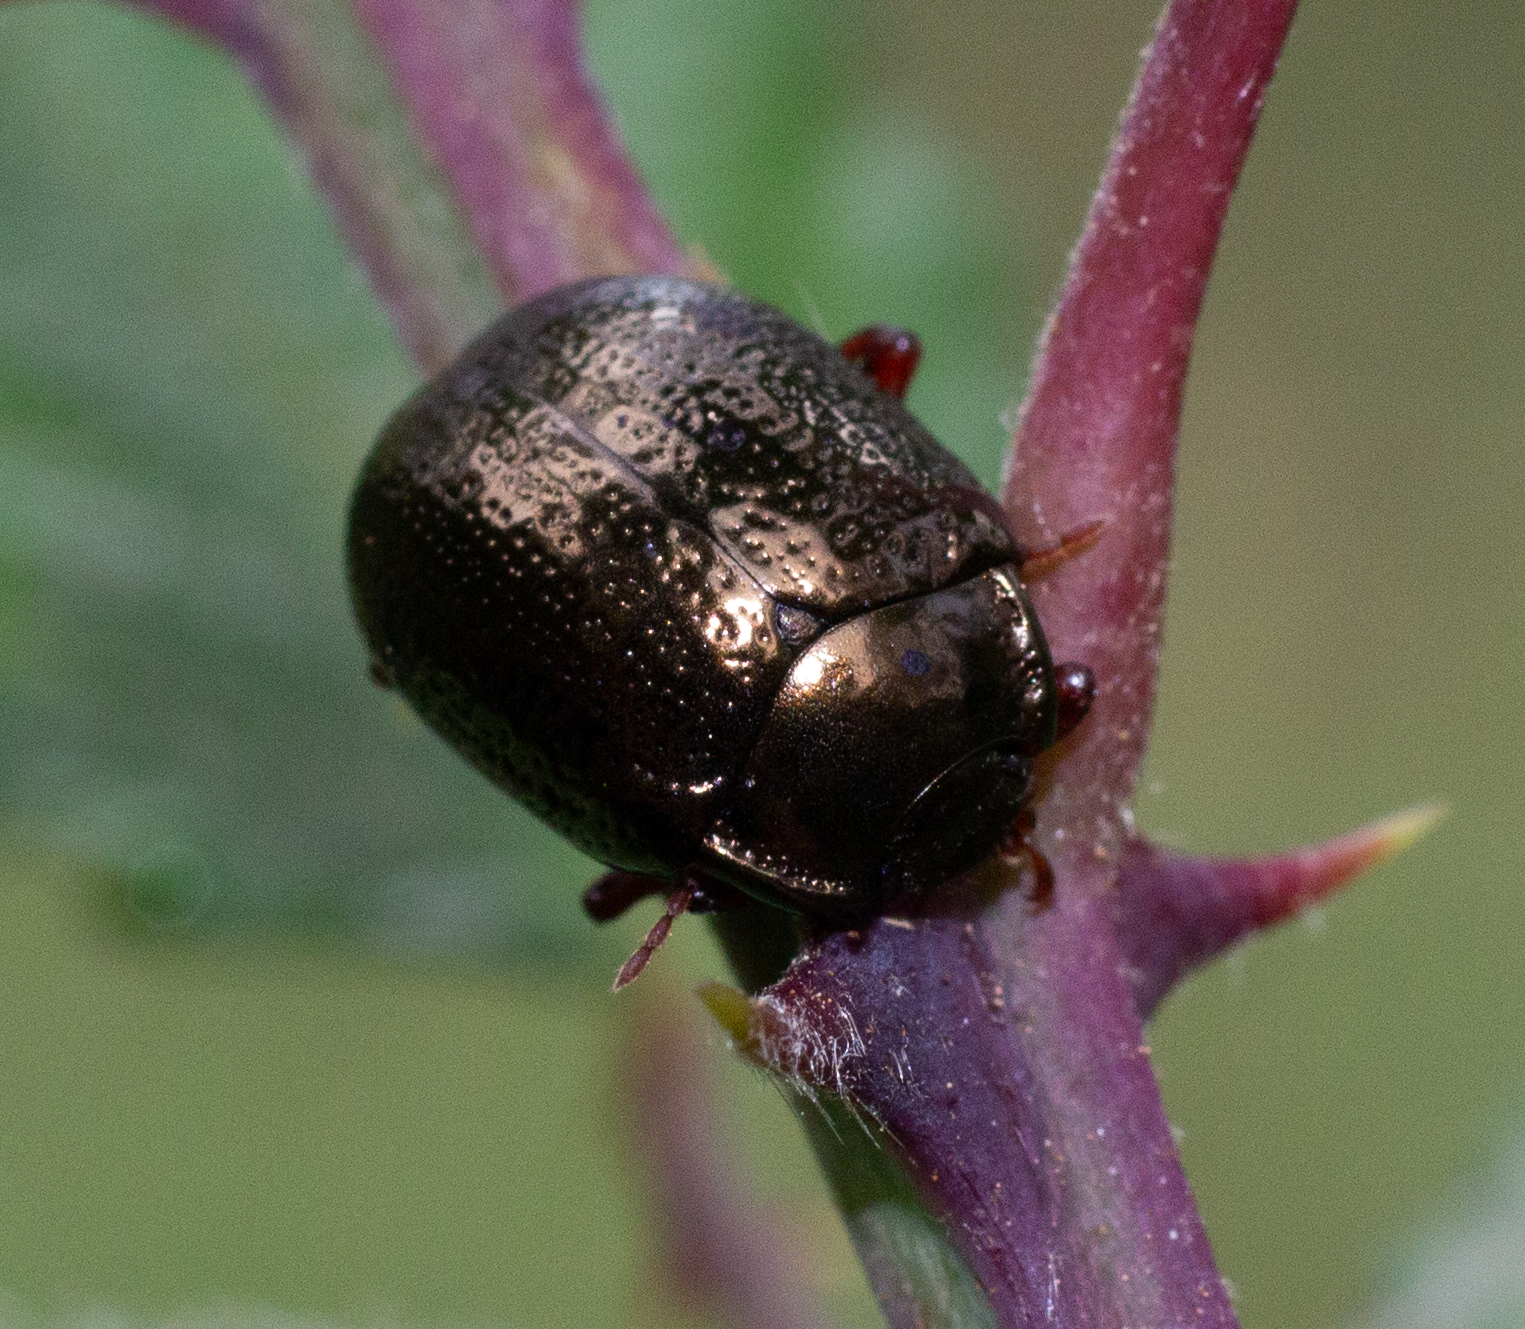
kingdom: Animalia
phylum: Arthropoda
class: Insecta
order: Coleoptera
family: Chrysomelidae
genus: Chrysolina
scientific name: Chrysolina bankii
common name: Leaf beetle
